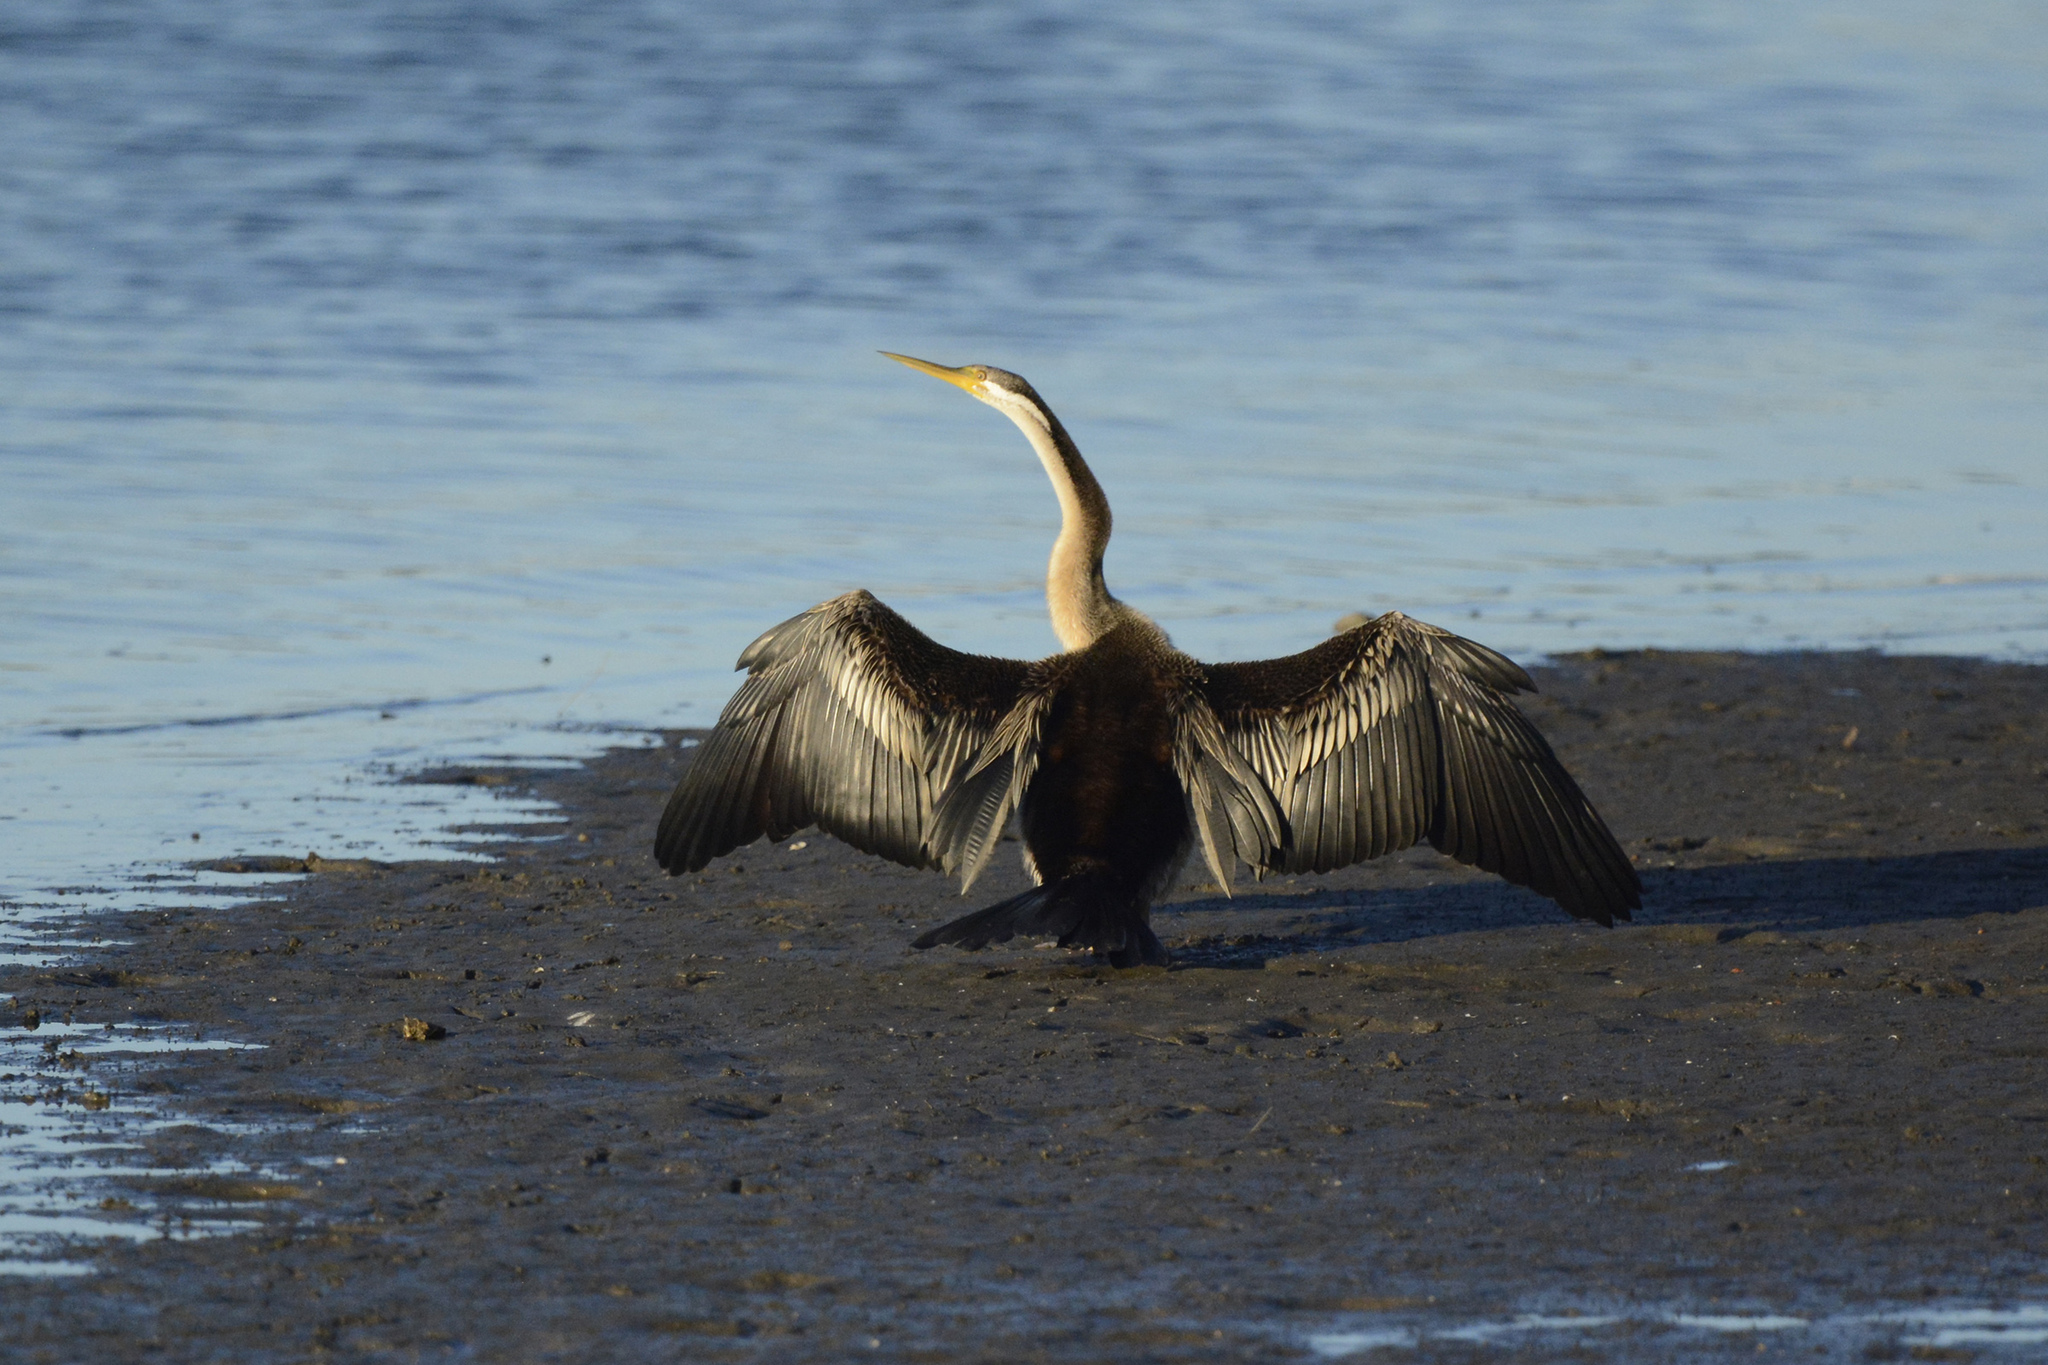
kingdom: Animalia
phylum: Chordata
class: Aves
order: Suliformes
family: Anhingidae
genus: Anhinga
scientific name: Anhinga novaehollandiae
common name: Australasian darter
